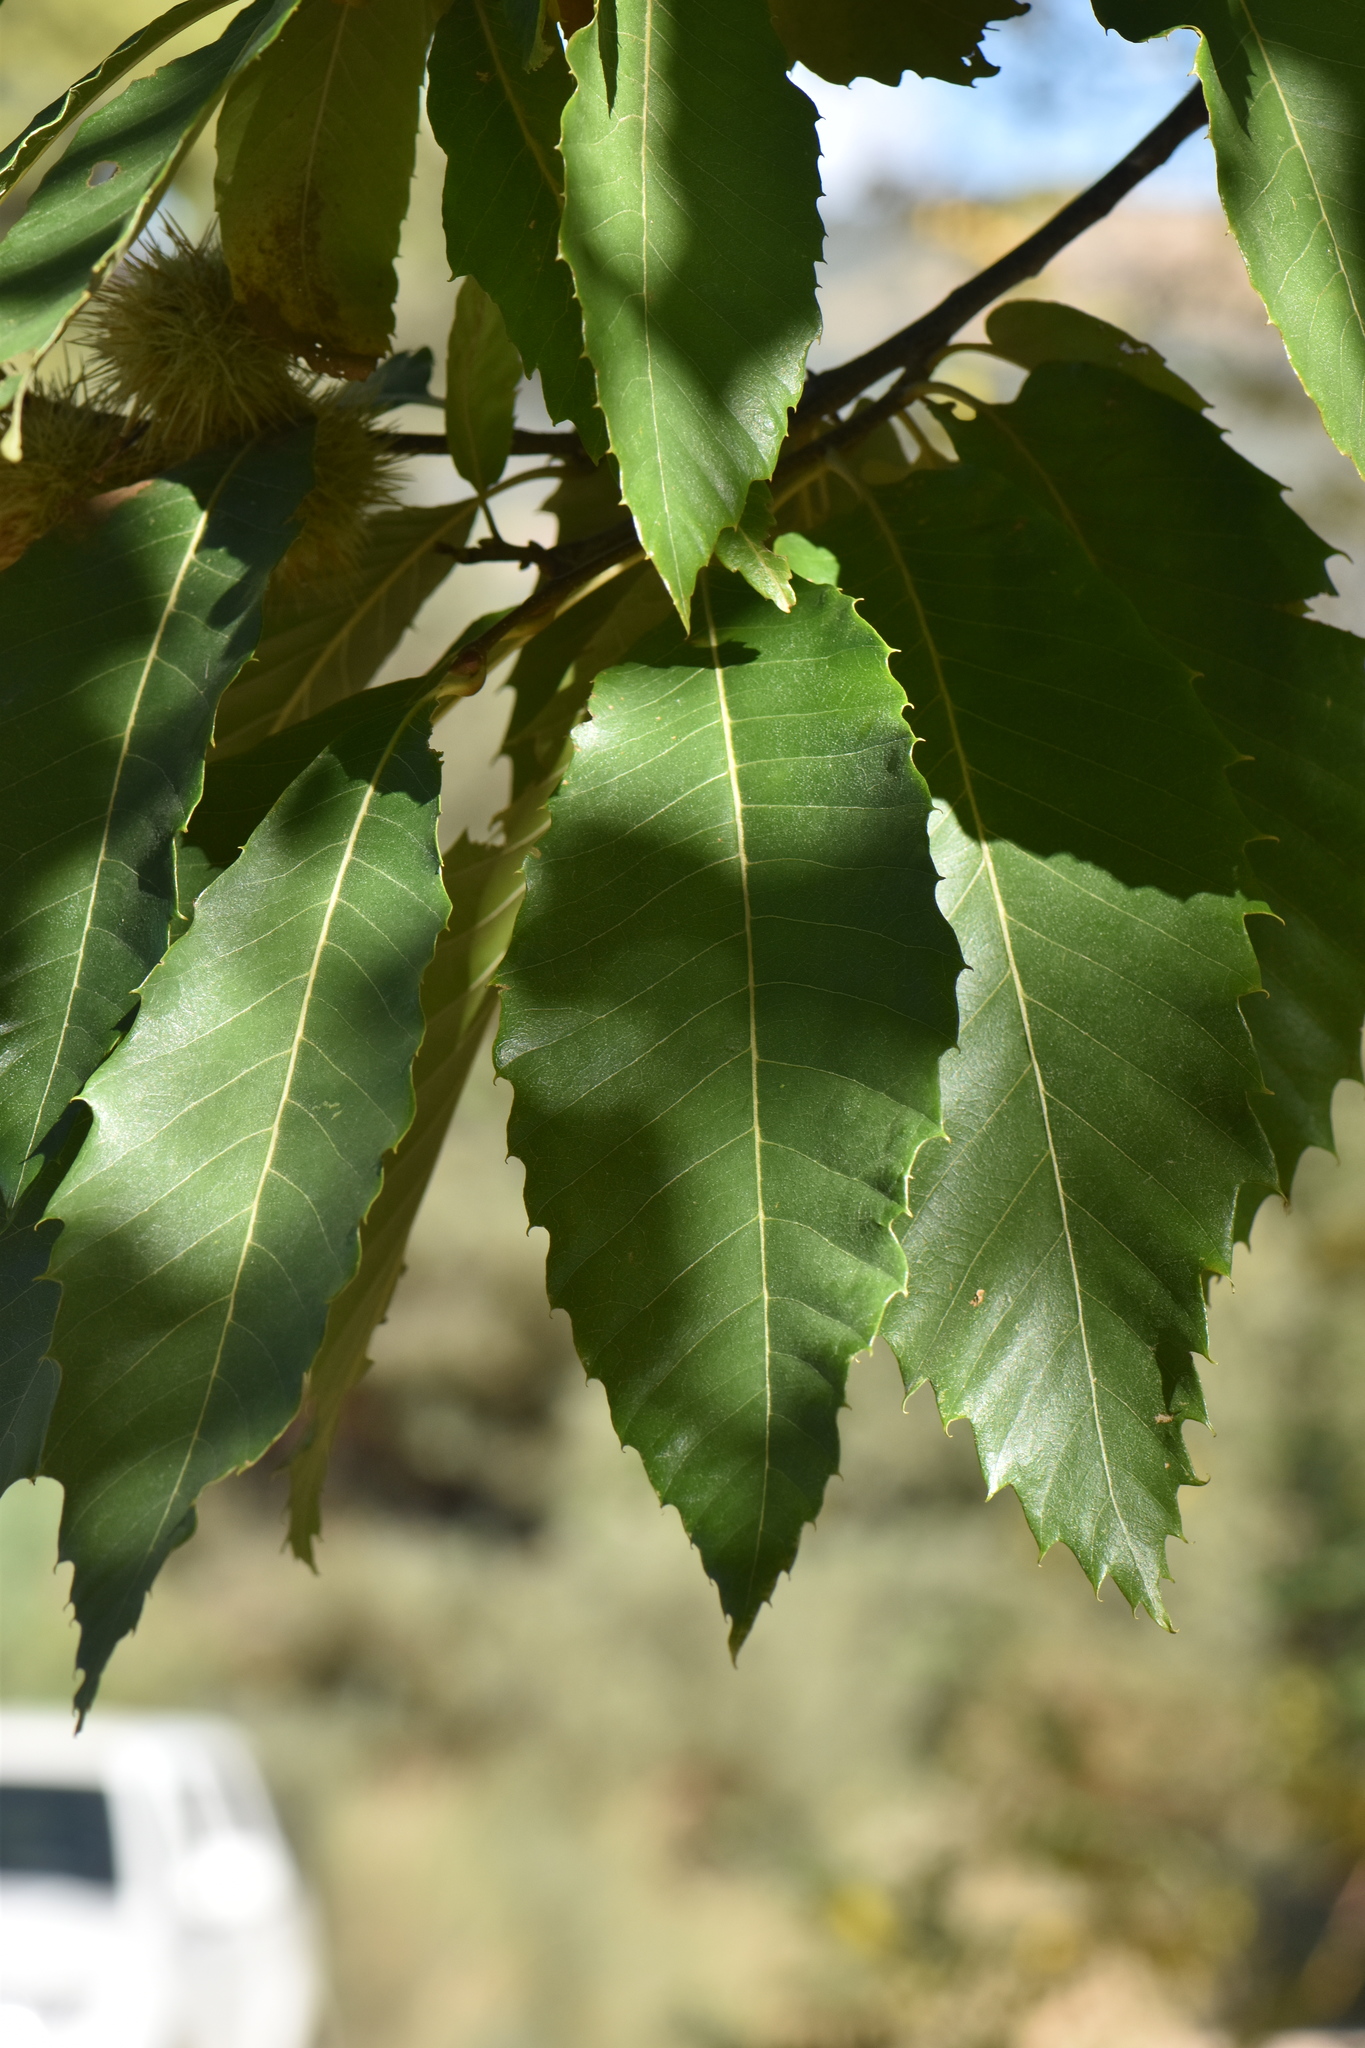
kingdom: Plantae
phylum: Tracheophyta
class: Magnoliopsida
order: Fagales
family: Fagaceae
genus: Castanea
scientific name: Castanea sativa
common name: Sweet chestnut
